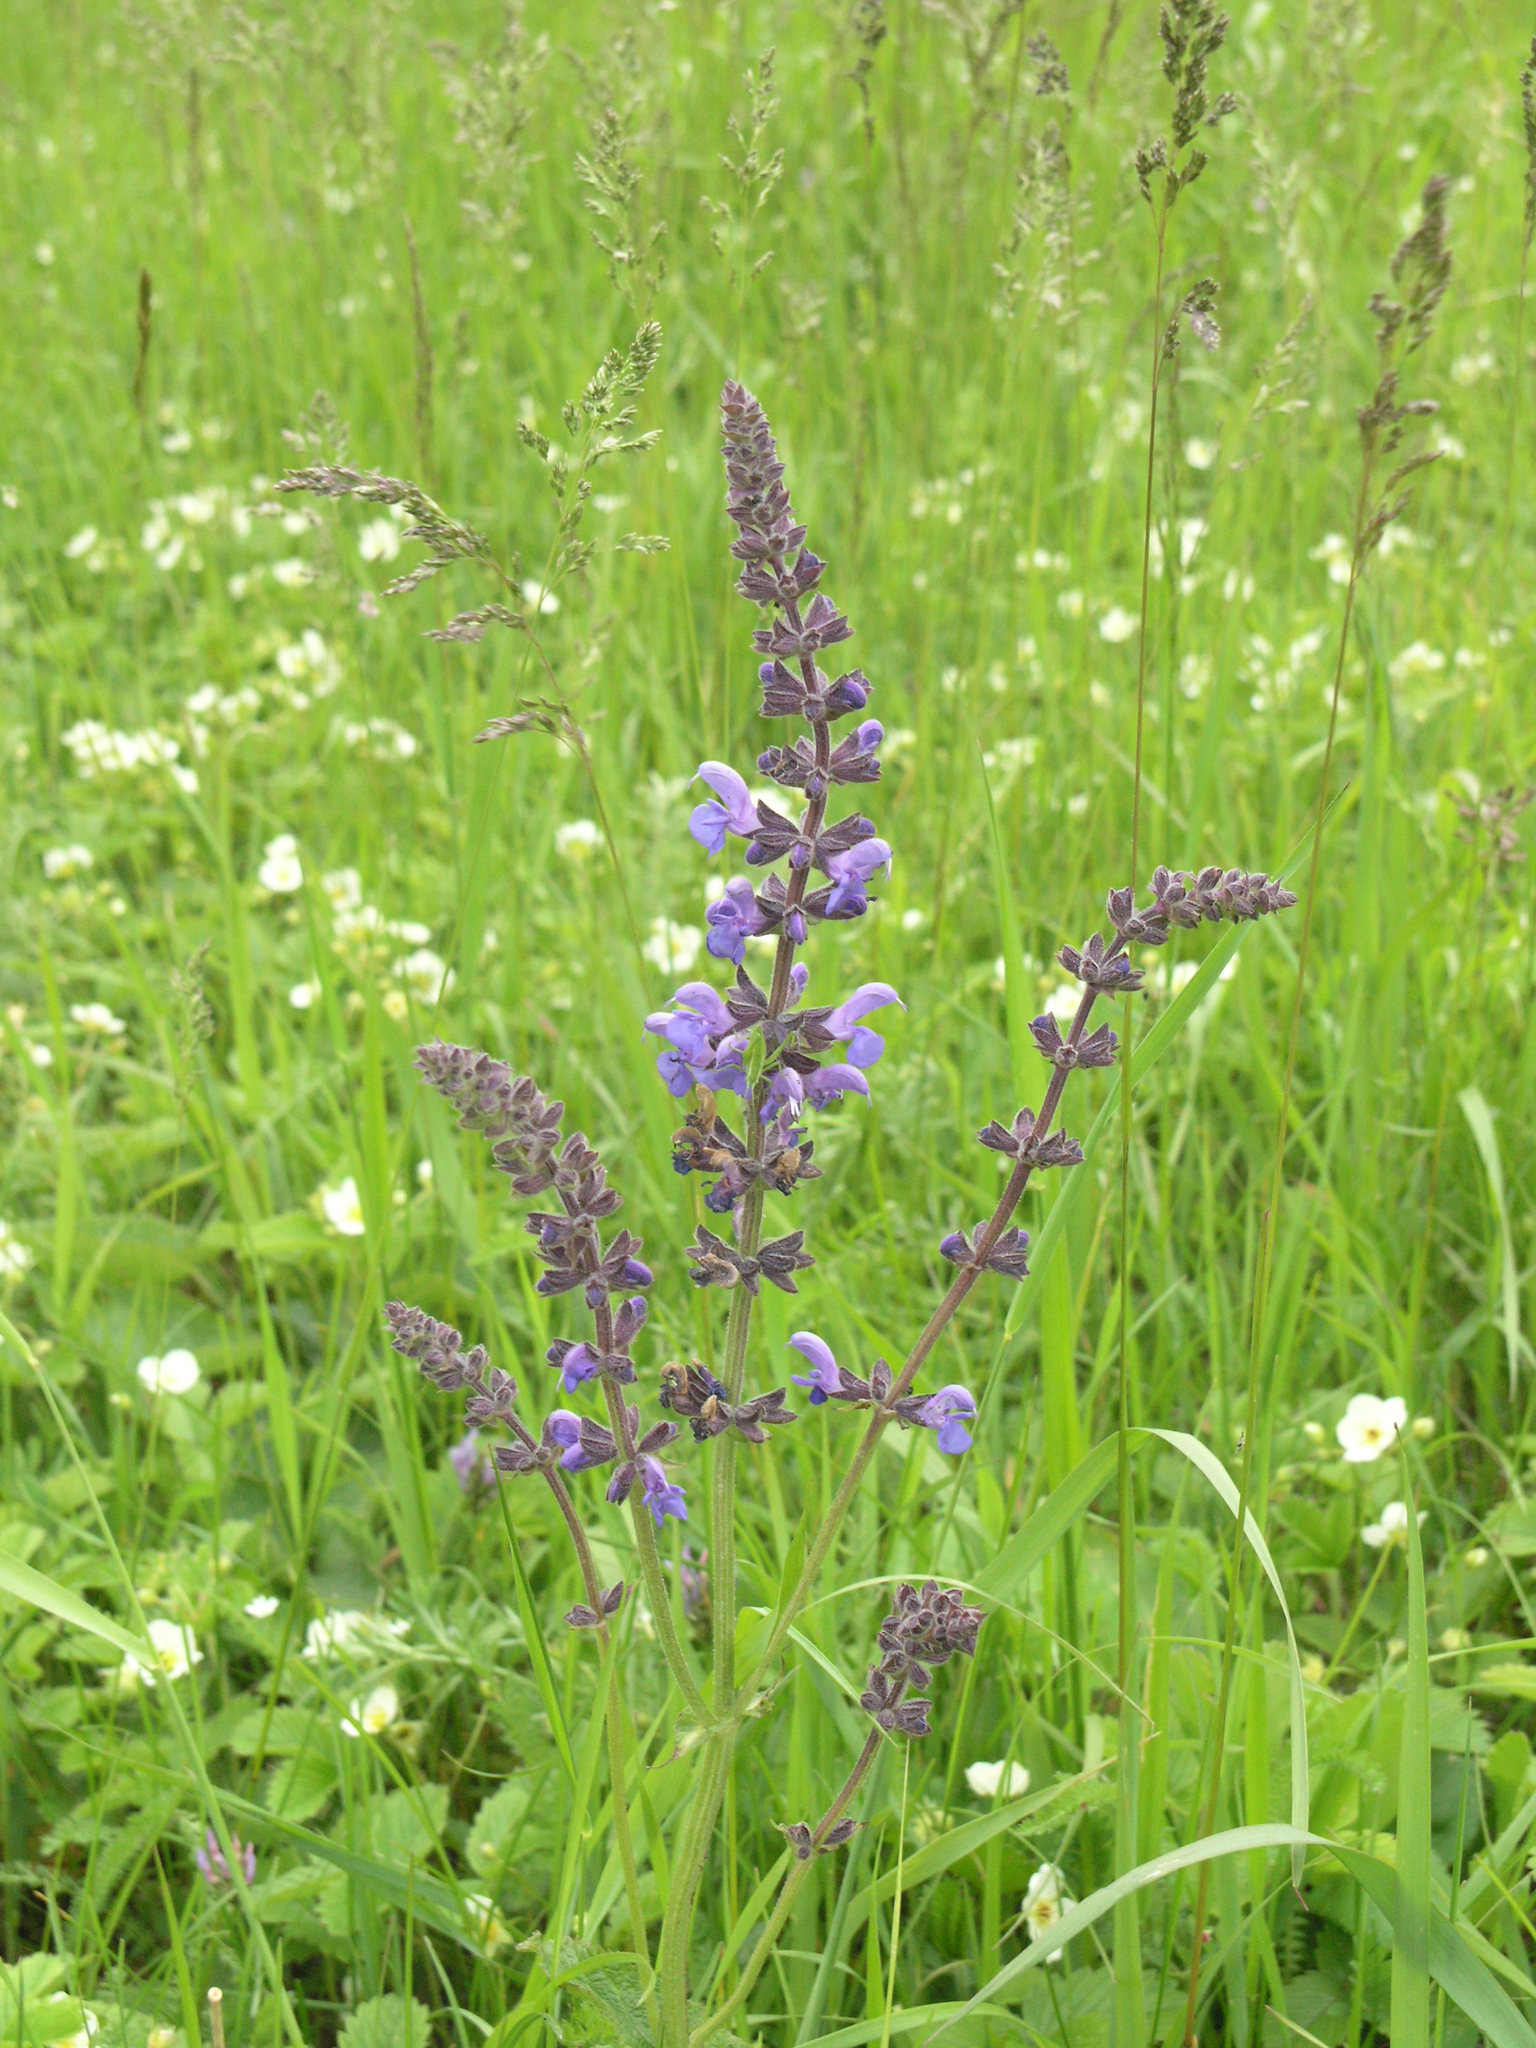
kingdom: Plantae
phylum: Tracheophyta
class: Magnoliopsida
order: Lamiales
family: Lamiaceae
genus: Salvia
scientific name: Salvia dumetorum
